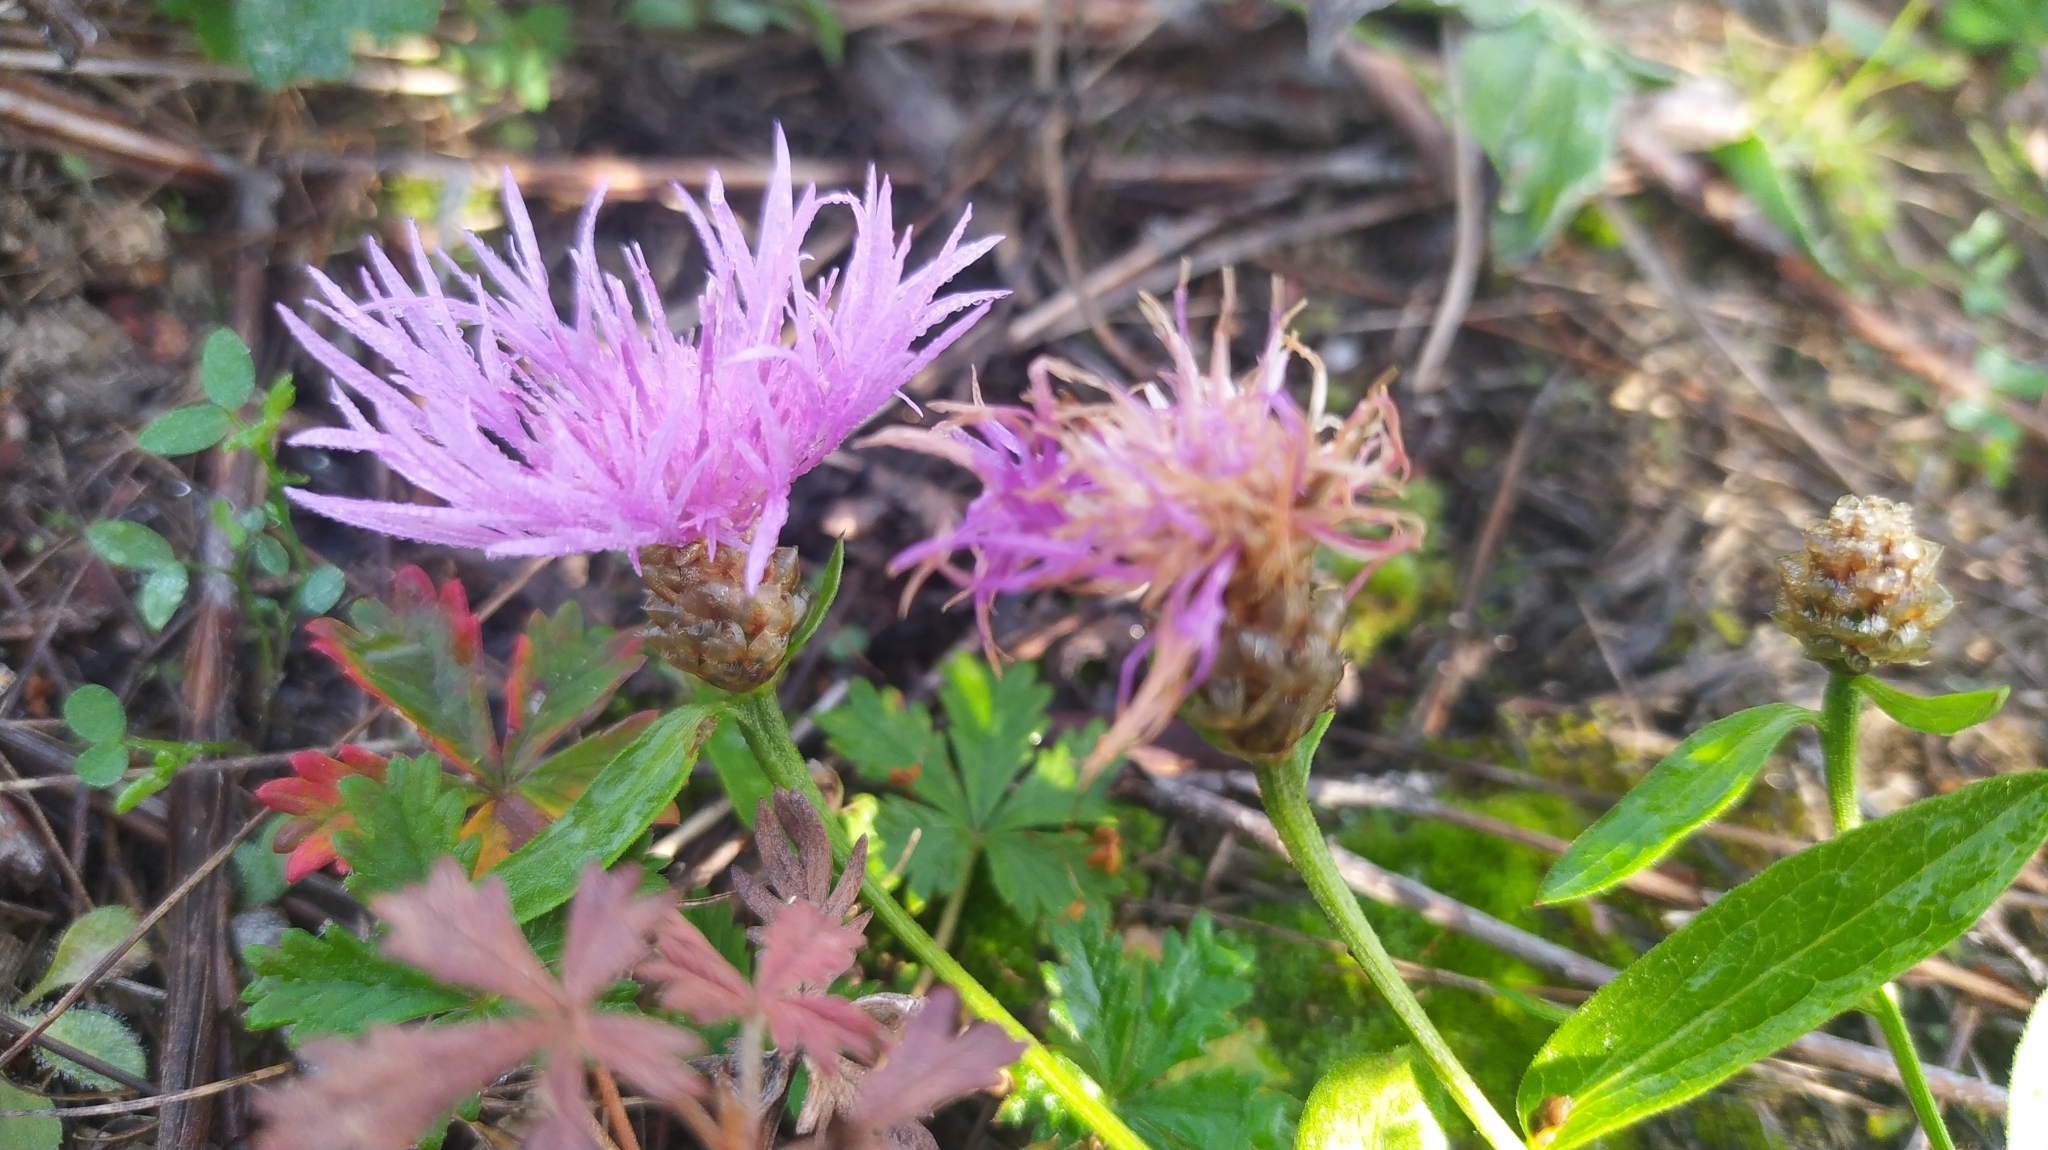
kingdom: Plantae
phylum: Tracheophyta
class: Magnoliopsida
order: Asterales
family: Asteraceae
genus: Centaurea
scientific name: Centaurea jacea
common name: Brown knapweed
